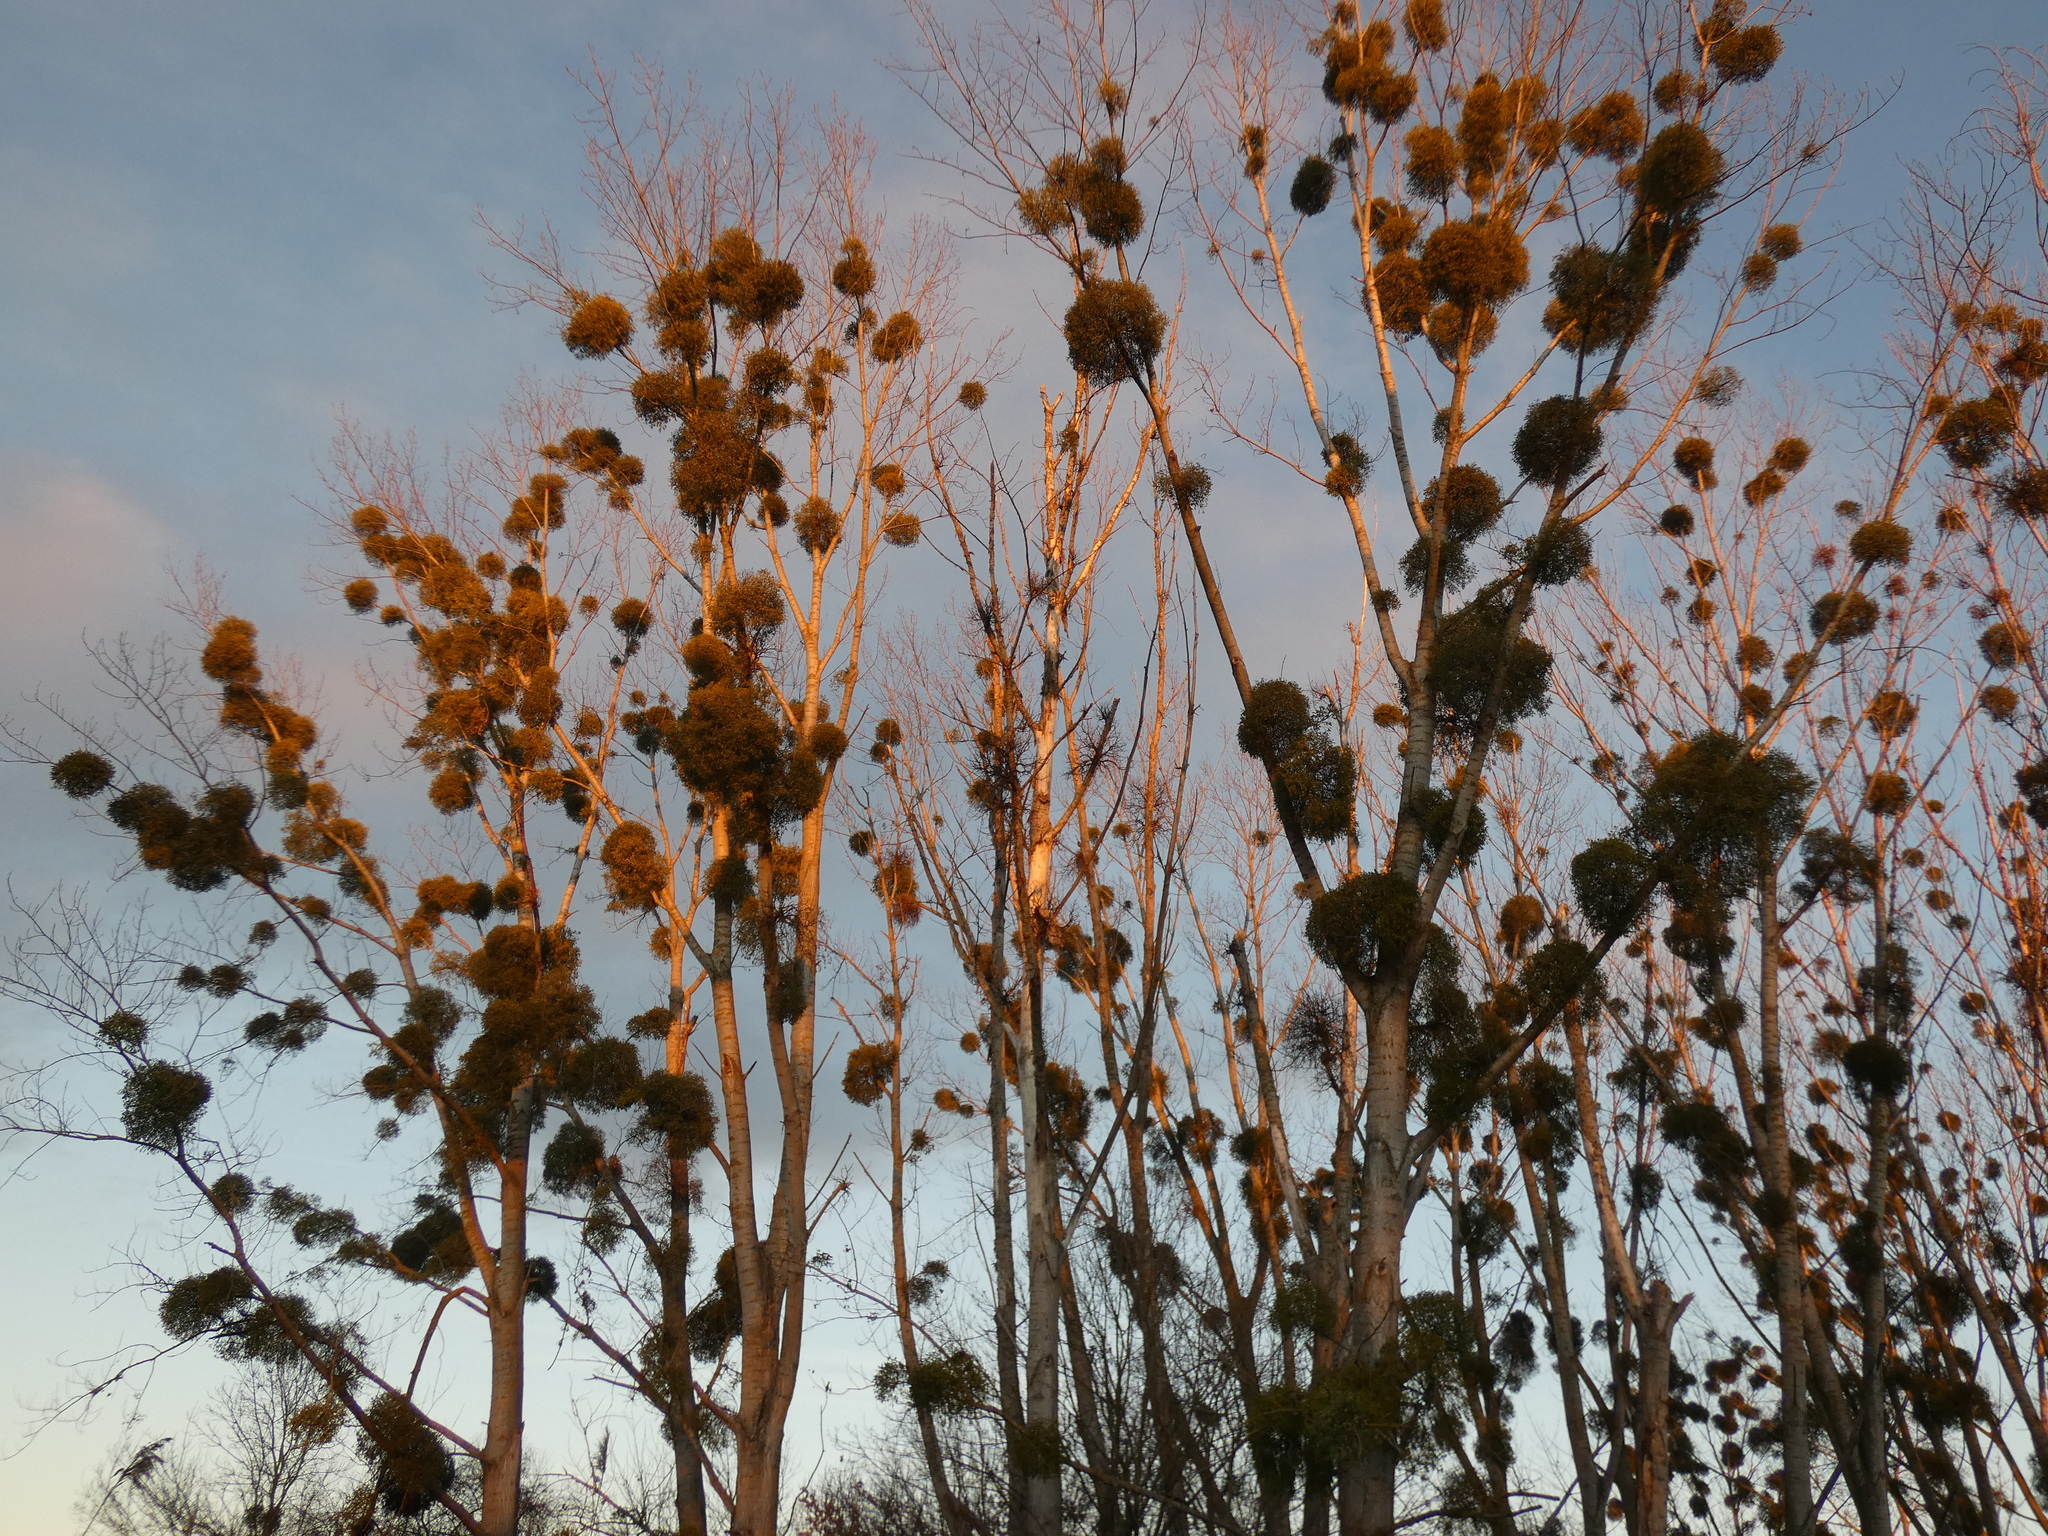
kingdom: Plantae
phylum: Tracheophyta
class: Magnoliopsida
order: Santalales
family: Viscaceae
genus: Viscum
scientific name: Viscum album
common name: Mistletoe
